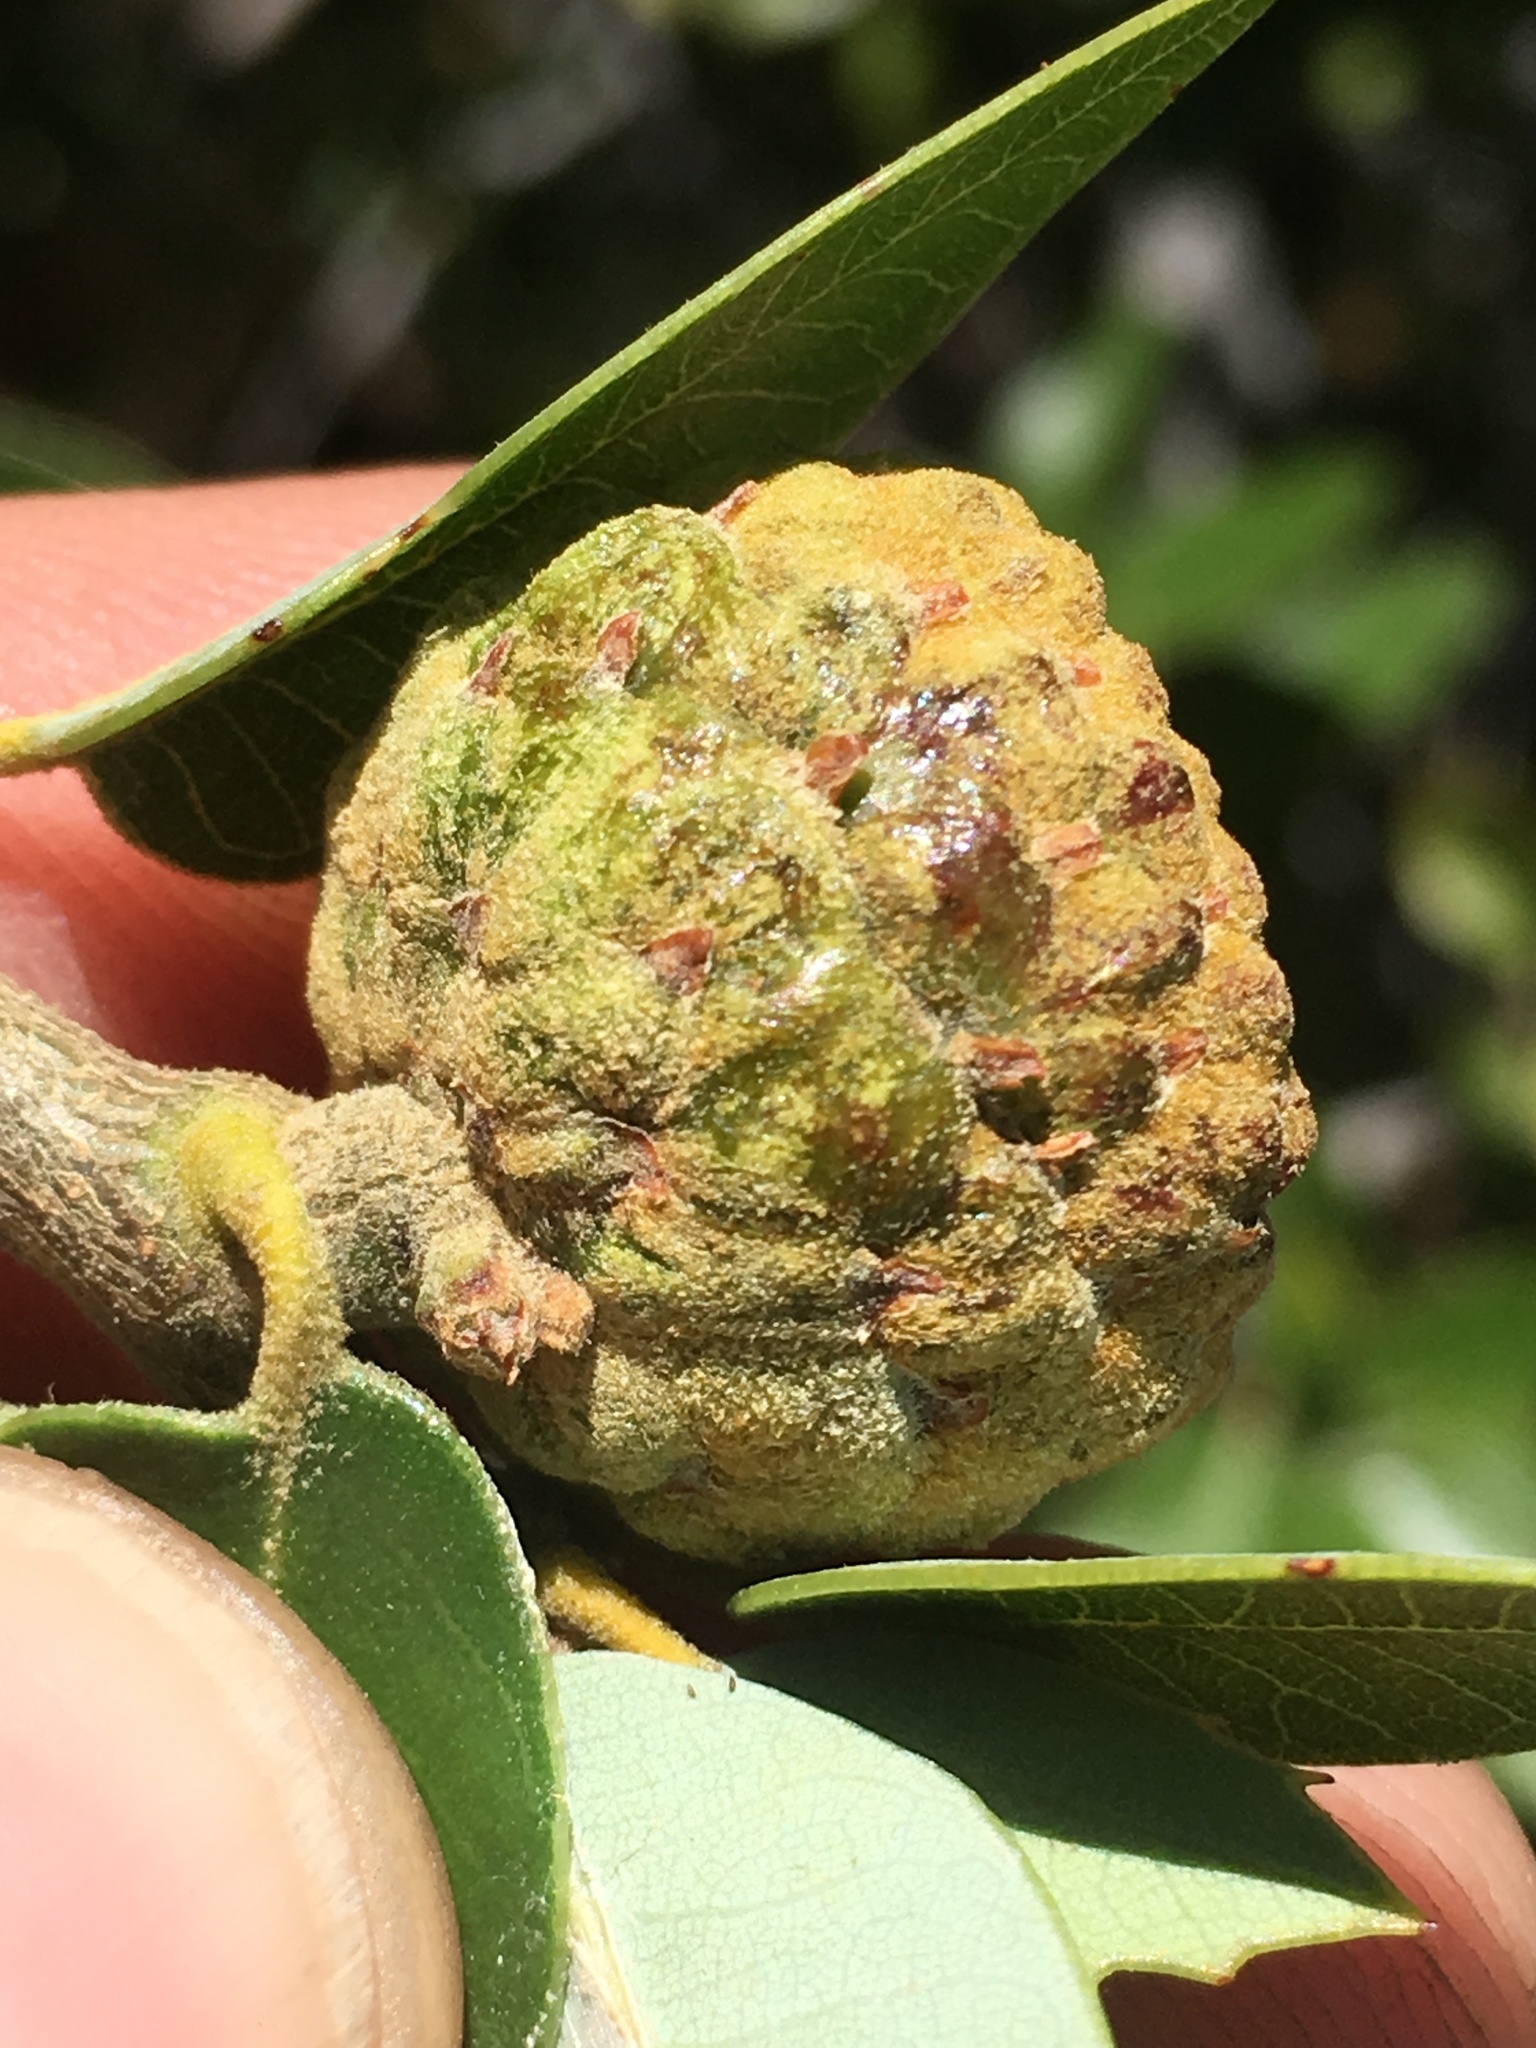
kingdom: Plantae
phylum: Tracheophyta
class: Magnoliopsida
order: Fagales
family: Fagaceae
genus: Quercus
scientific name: Quercus chrysolepis
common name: Canyon live oak
